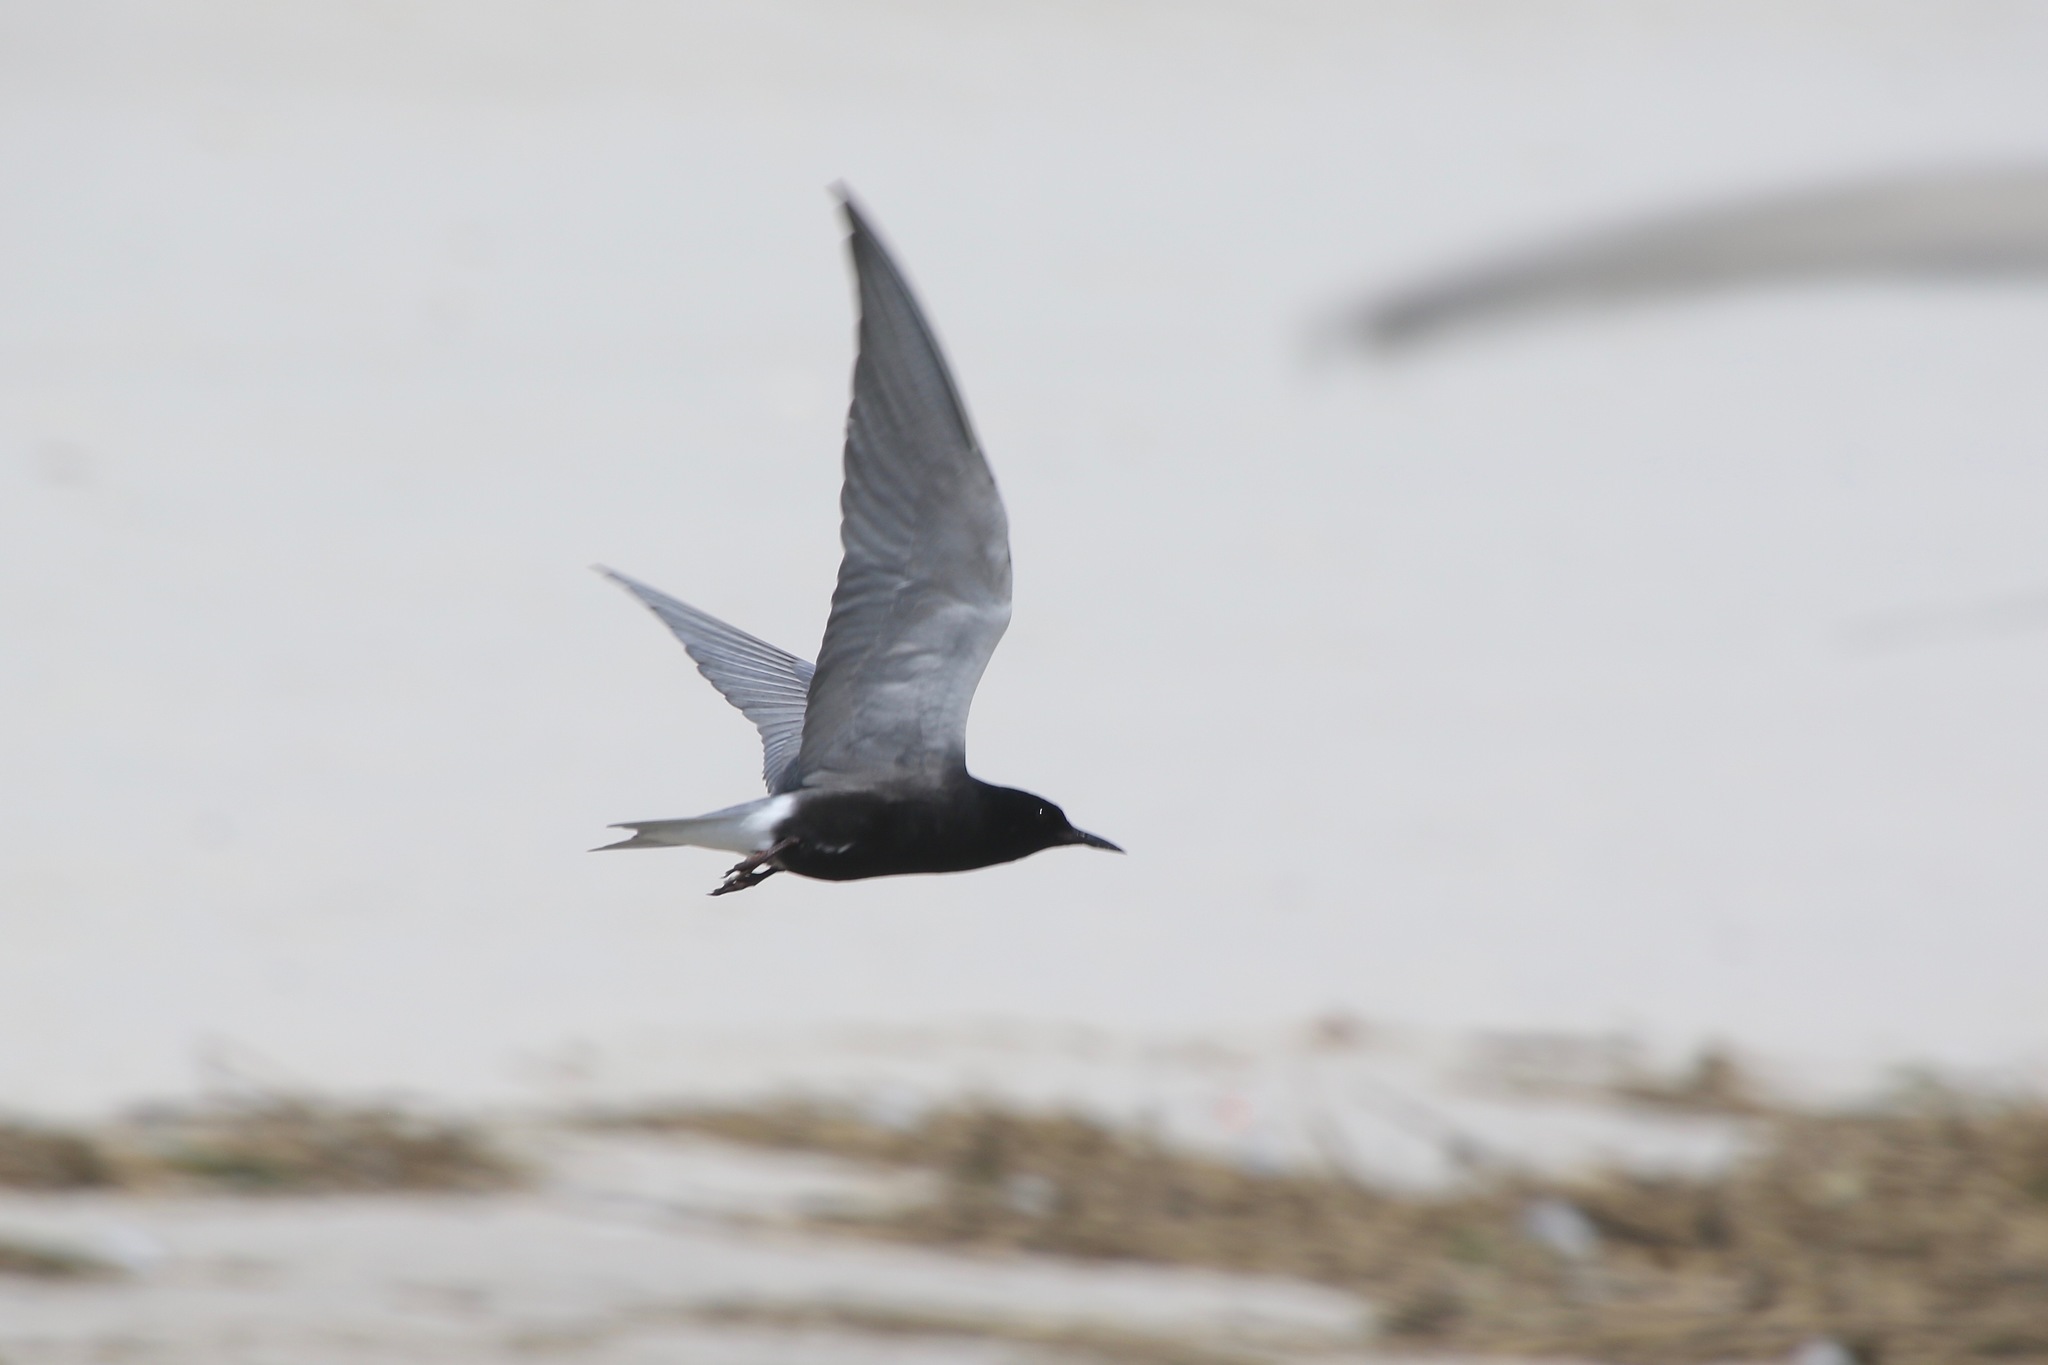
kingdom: Animalia
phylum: Chordata
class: Aves
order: Charadriiformes
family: Laridae
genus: Chlidonias
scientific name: Chlidonias niger
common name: Black tern
